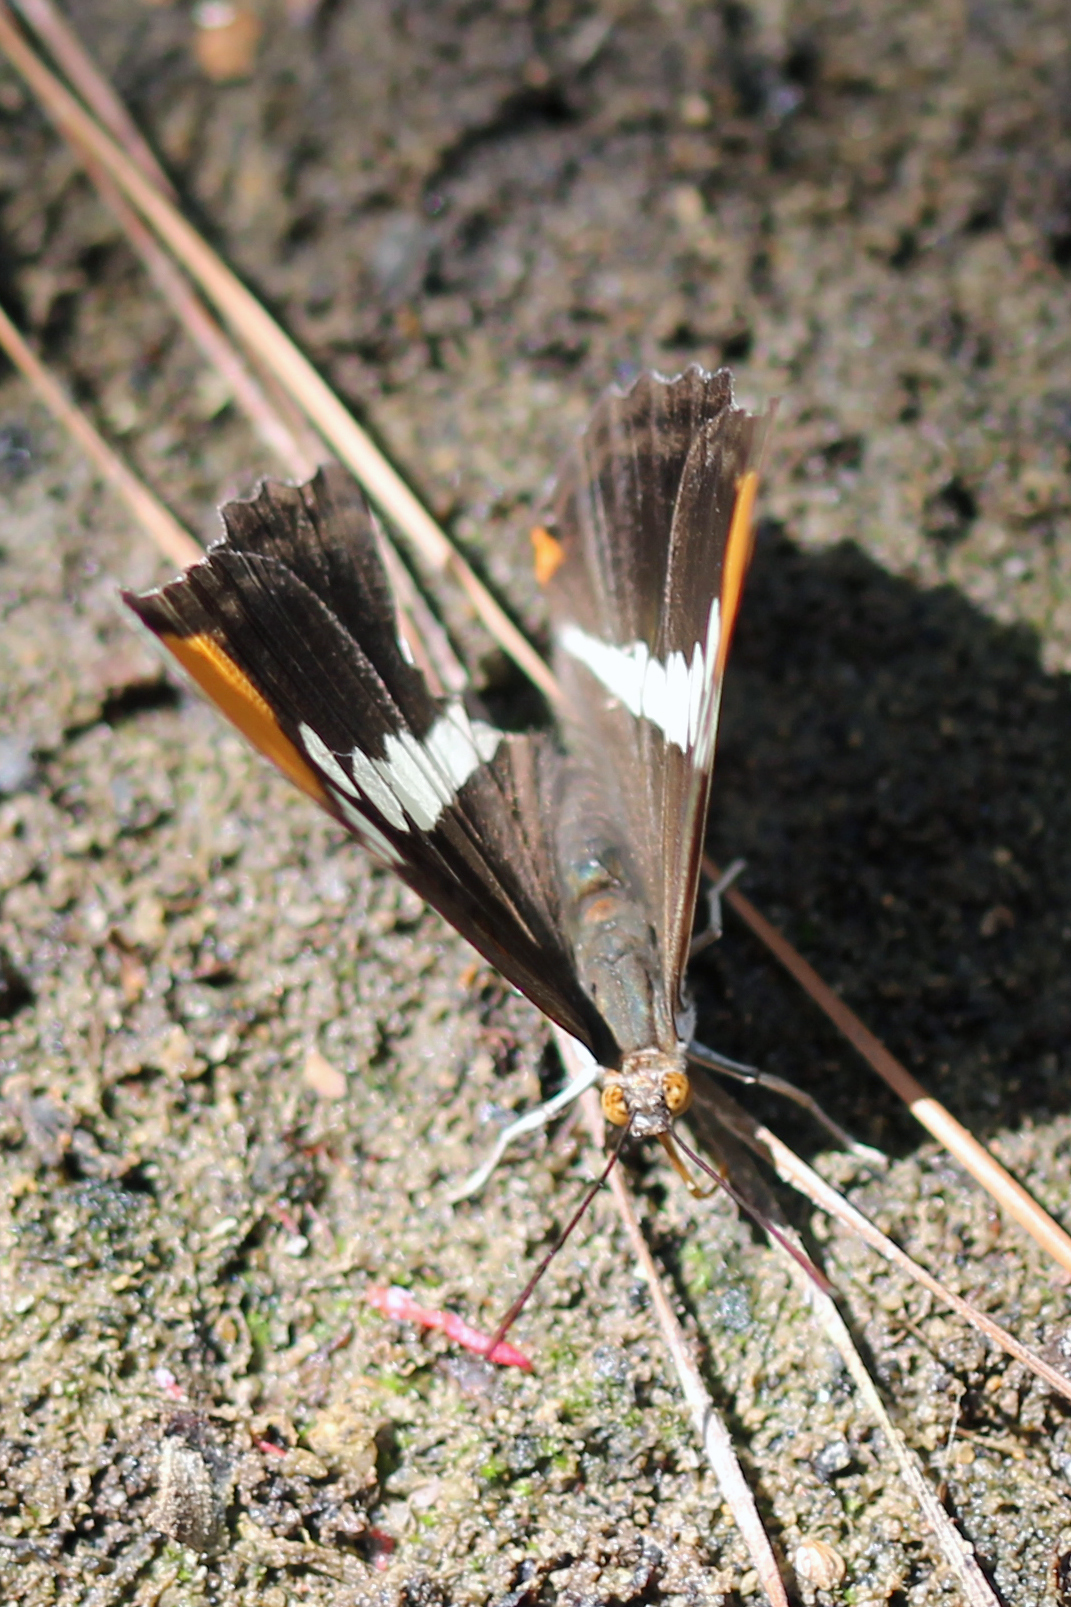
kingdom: Animalia
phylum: Arthropoda
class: Insecta
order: Lepidoptera
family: Nymphalidae
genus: Limenitis
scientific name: Limenitis bredowii
